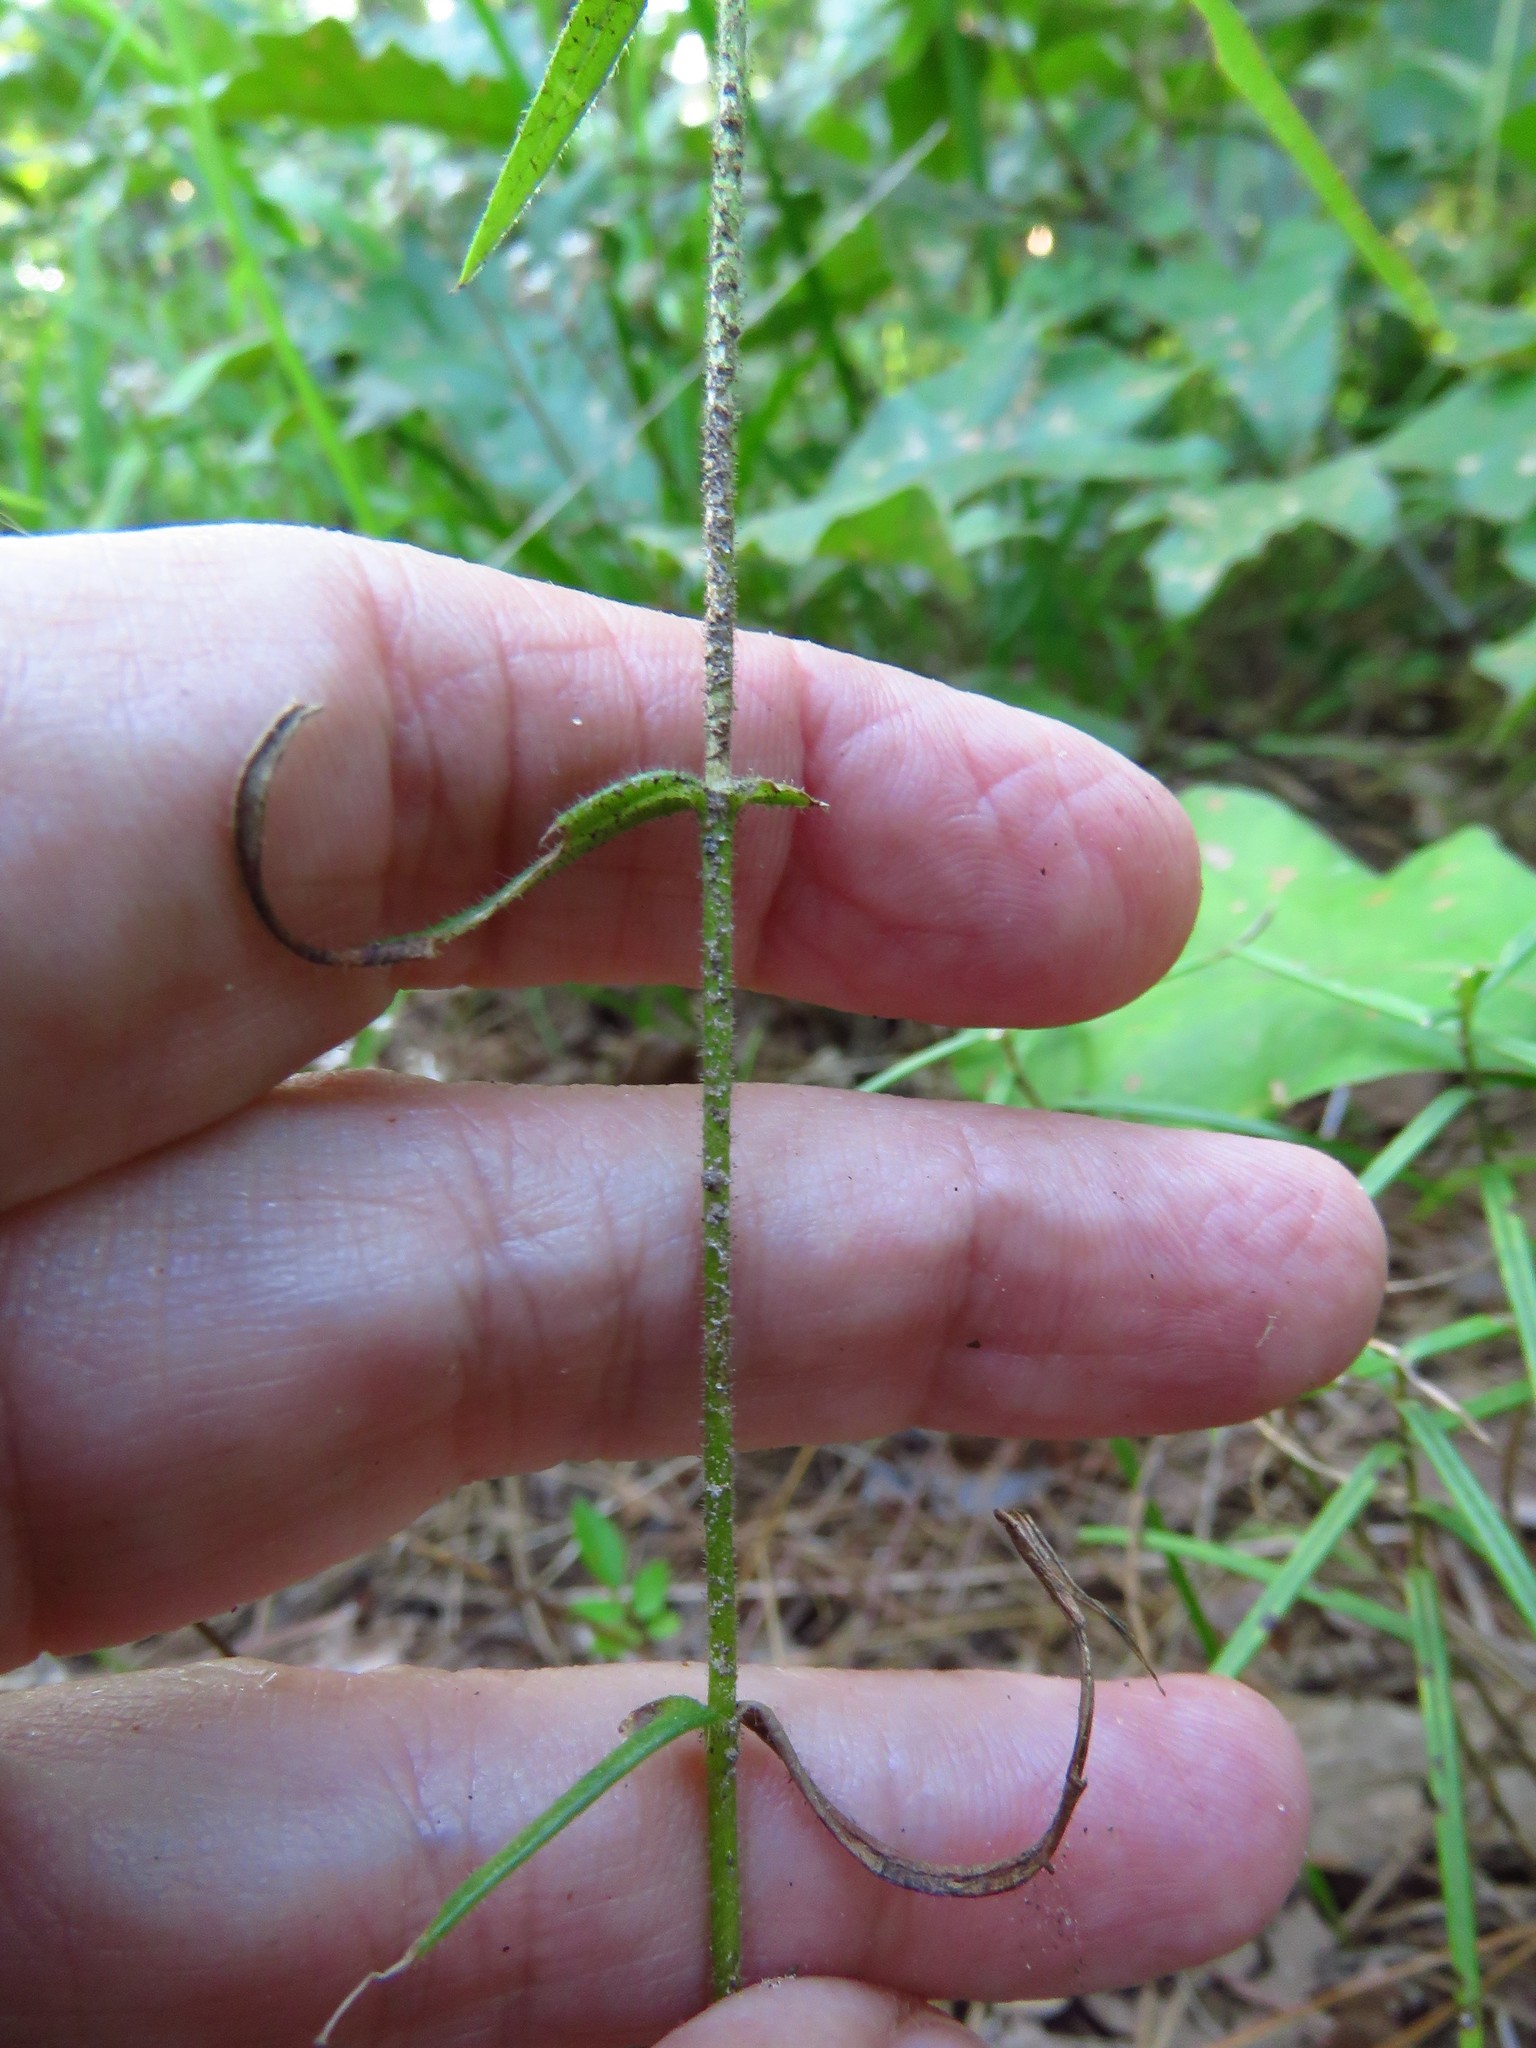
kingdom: Plantae
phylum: Tracheophyta
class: Magnoliopsida
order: Ericales
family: Polemoniaceae
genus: Phlox
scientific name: Phlox pilosa
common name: Prairie phlox
